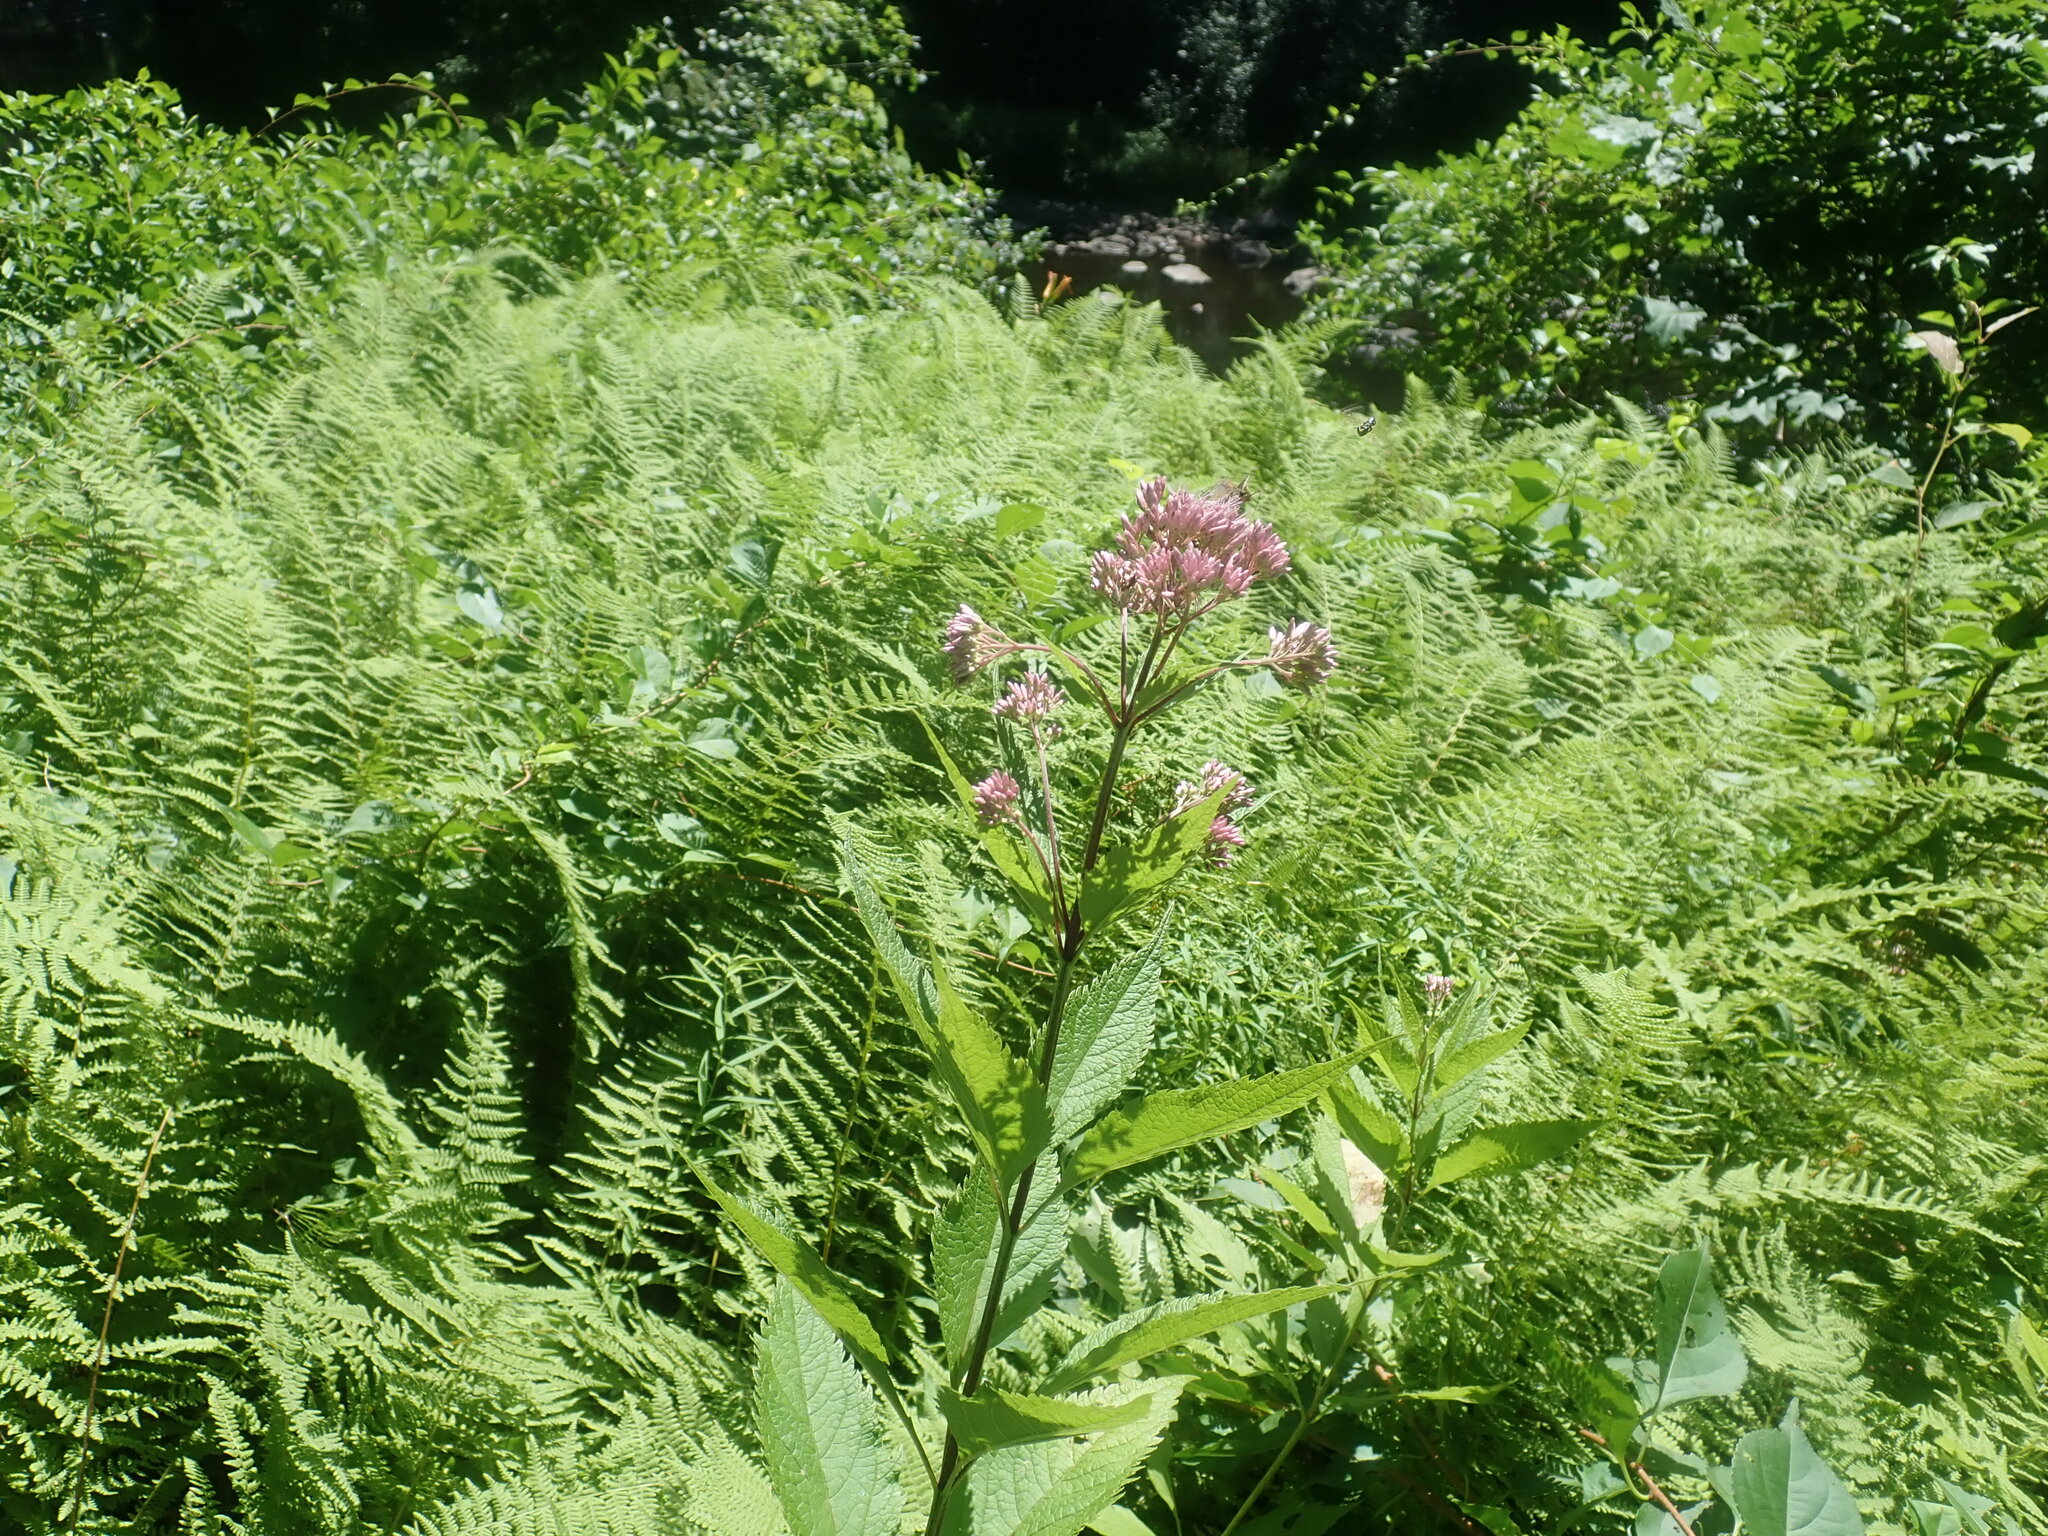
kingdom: Plantae
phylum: Tracheophyta
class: Magnoliopsida
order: Asterales
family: Asteraceae
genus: Eutrochium
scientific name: Eutrochium
